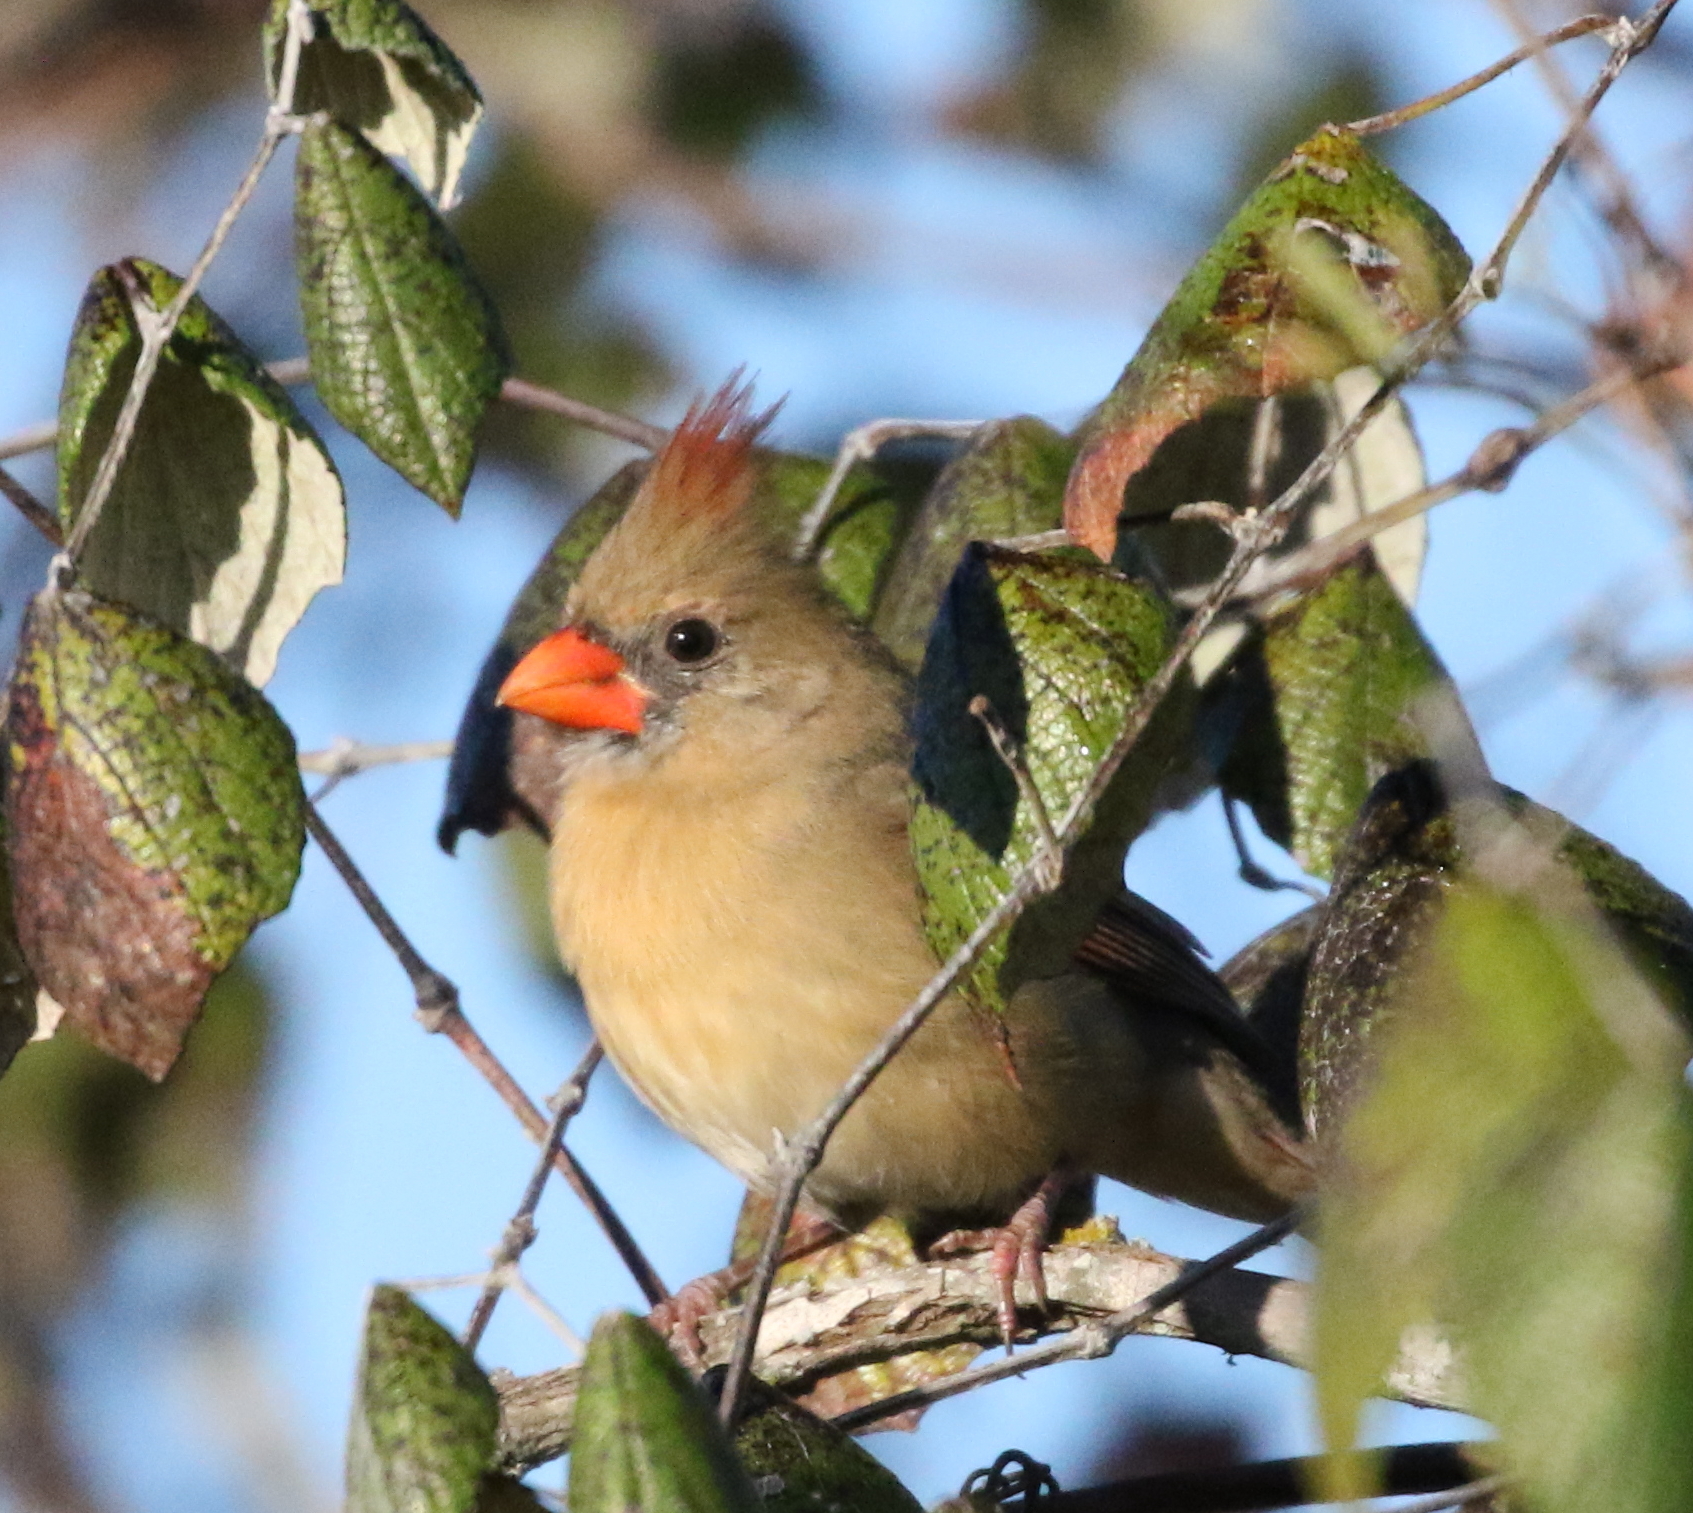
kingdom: Animalia
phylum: Chordata
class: Aves
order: Passeriformes
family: Cardinalidae
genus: Cardinalis
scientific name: Cardinalis cardinalis
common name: Northern cardinal
